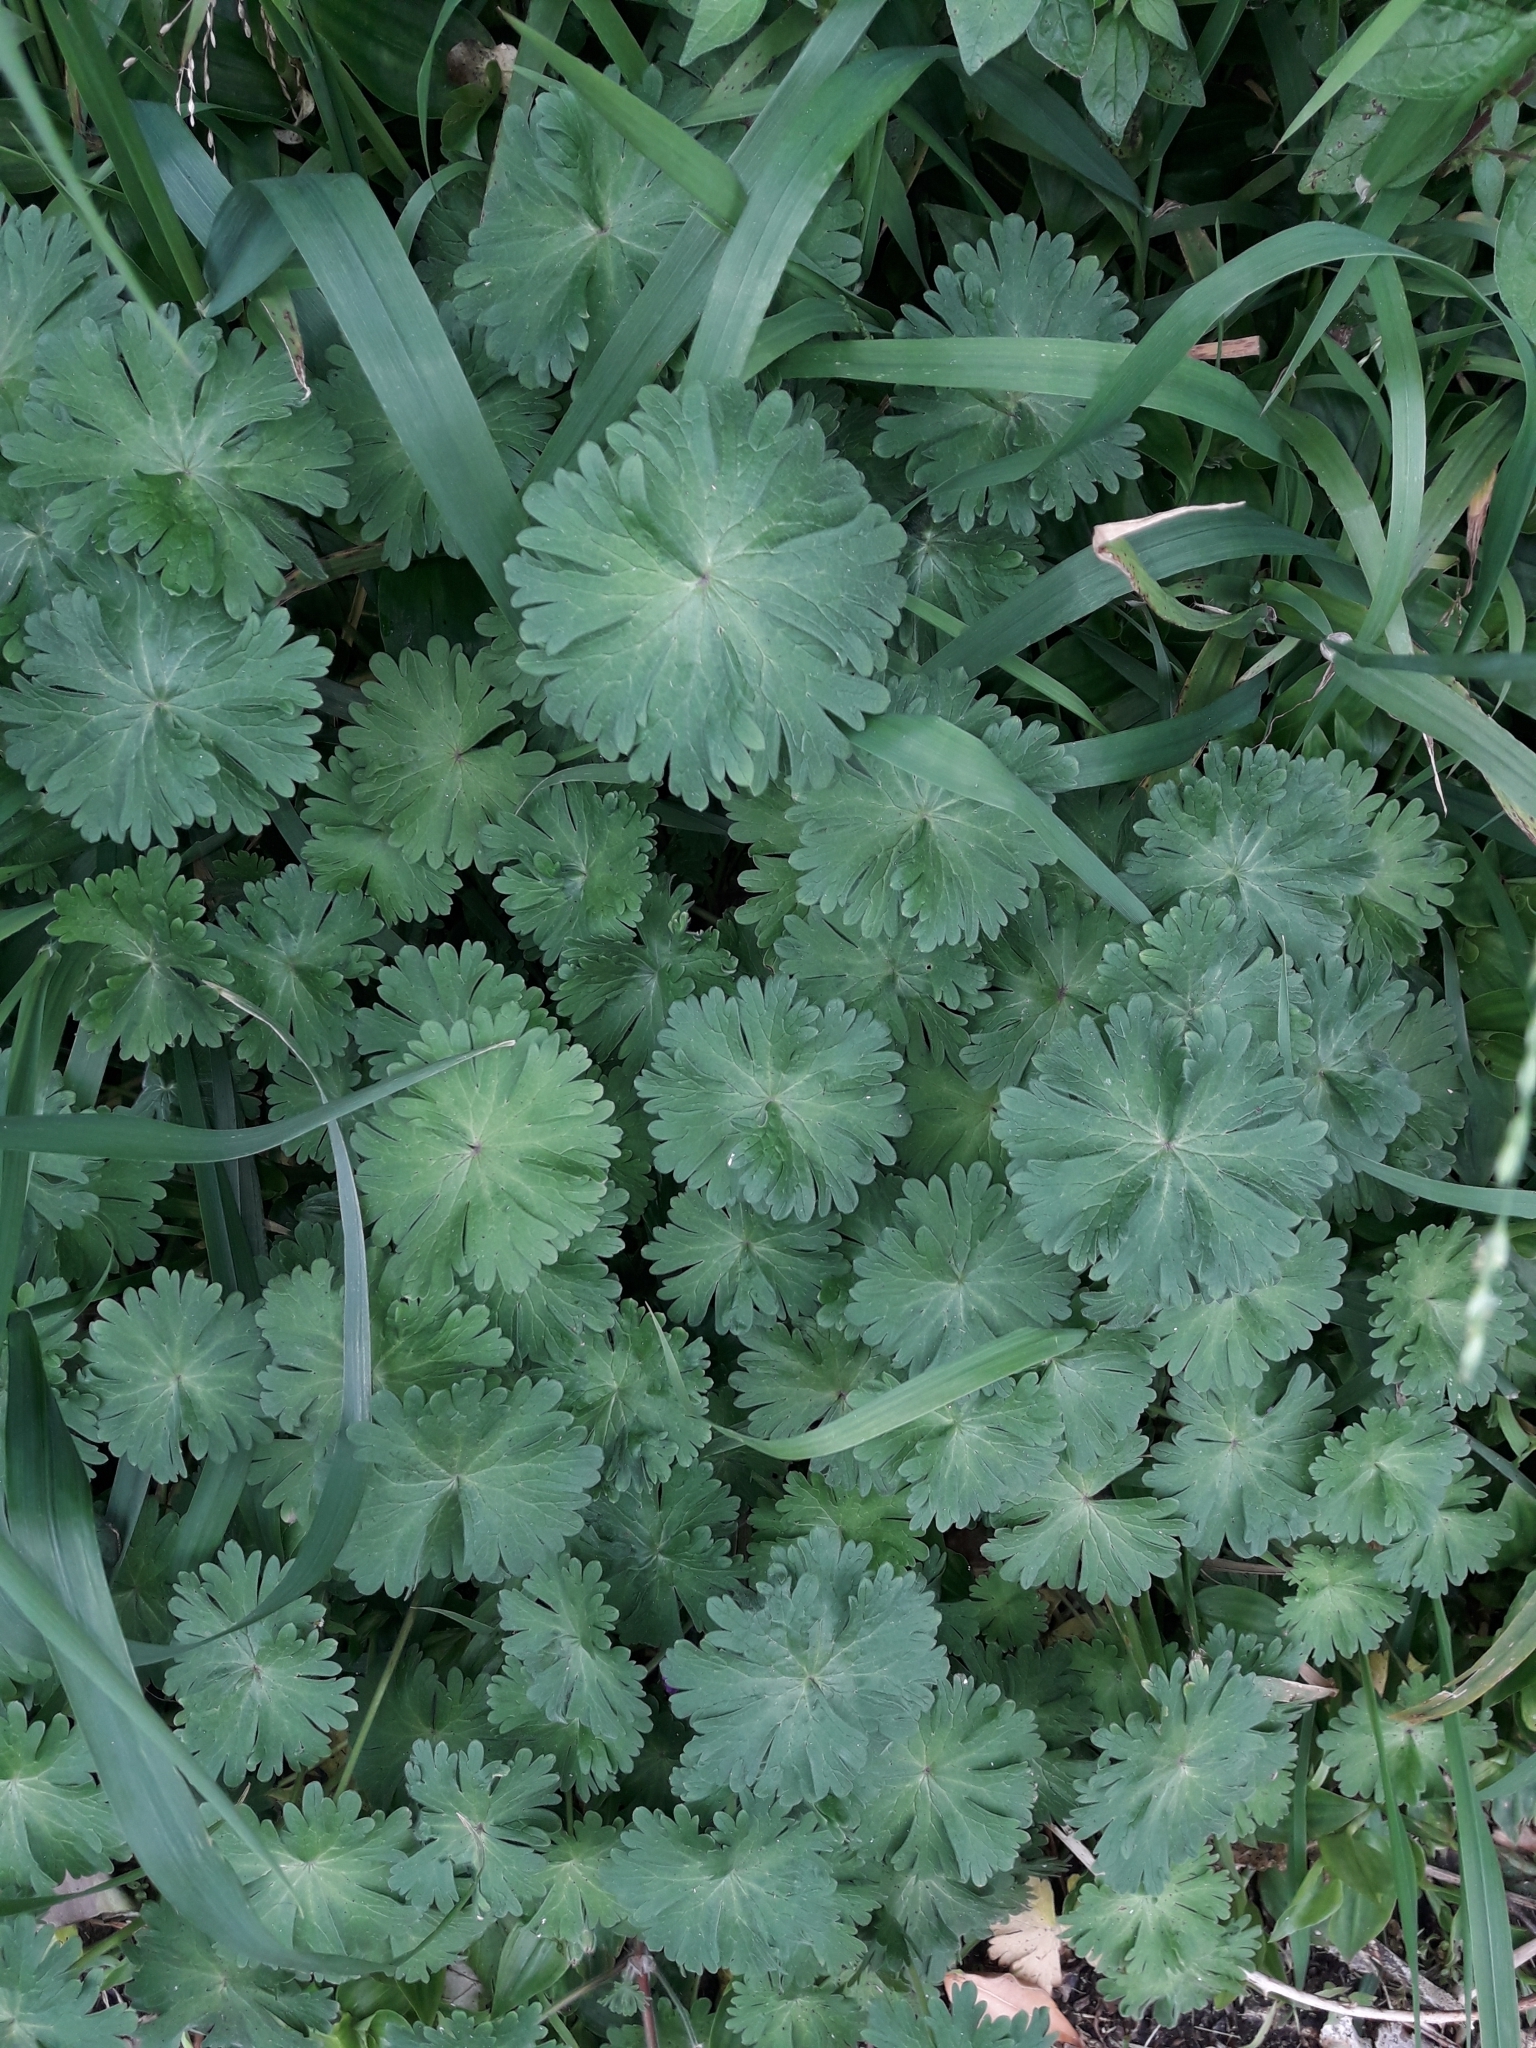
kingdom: Plantae
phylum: Tracheophyta
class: Magnoliopsida
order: Geraniales
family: Geraniaceae
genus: Geranium
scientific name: Geranium molle
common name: Dove's-foot crane's-bill
